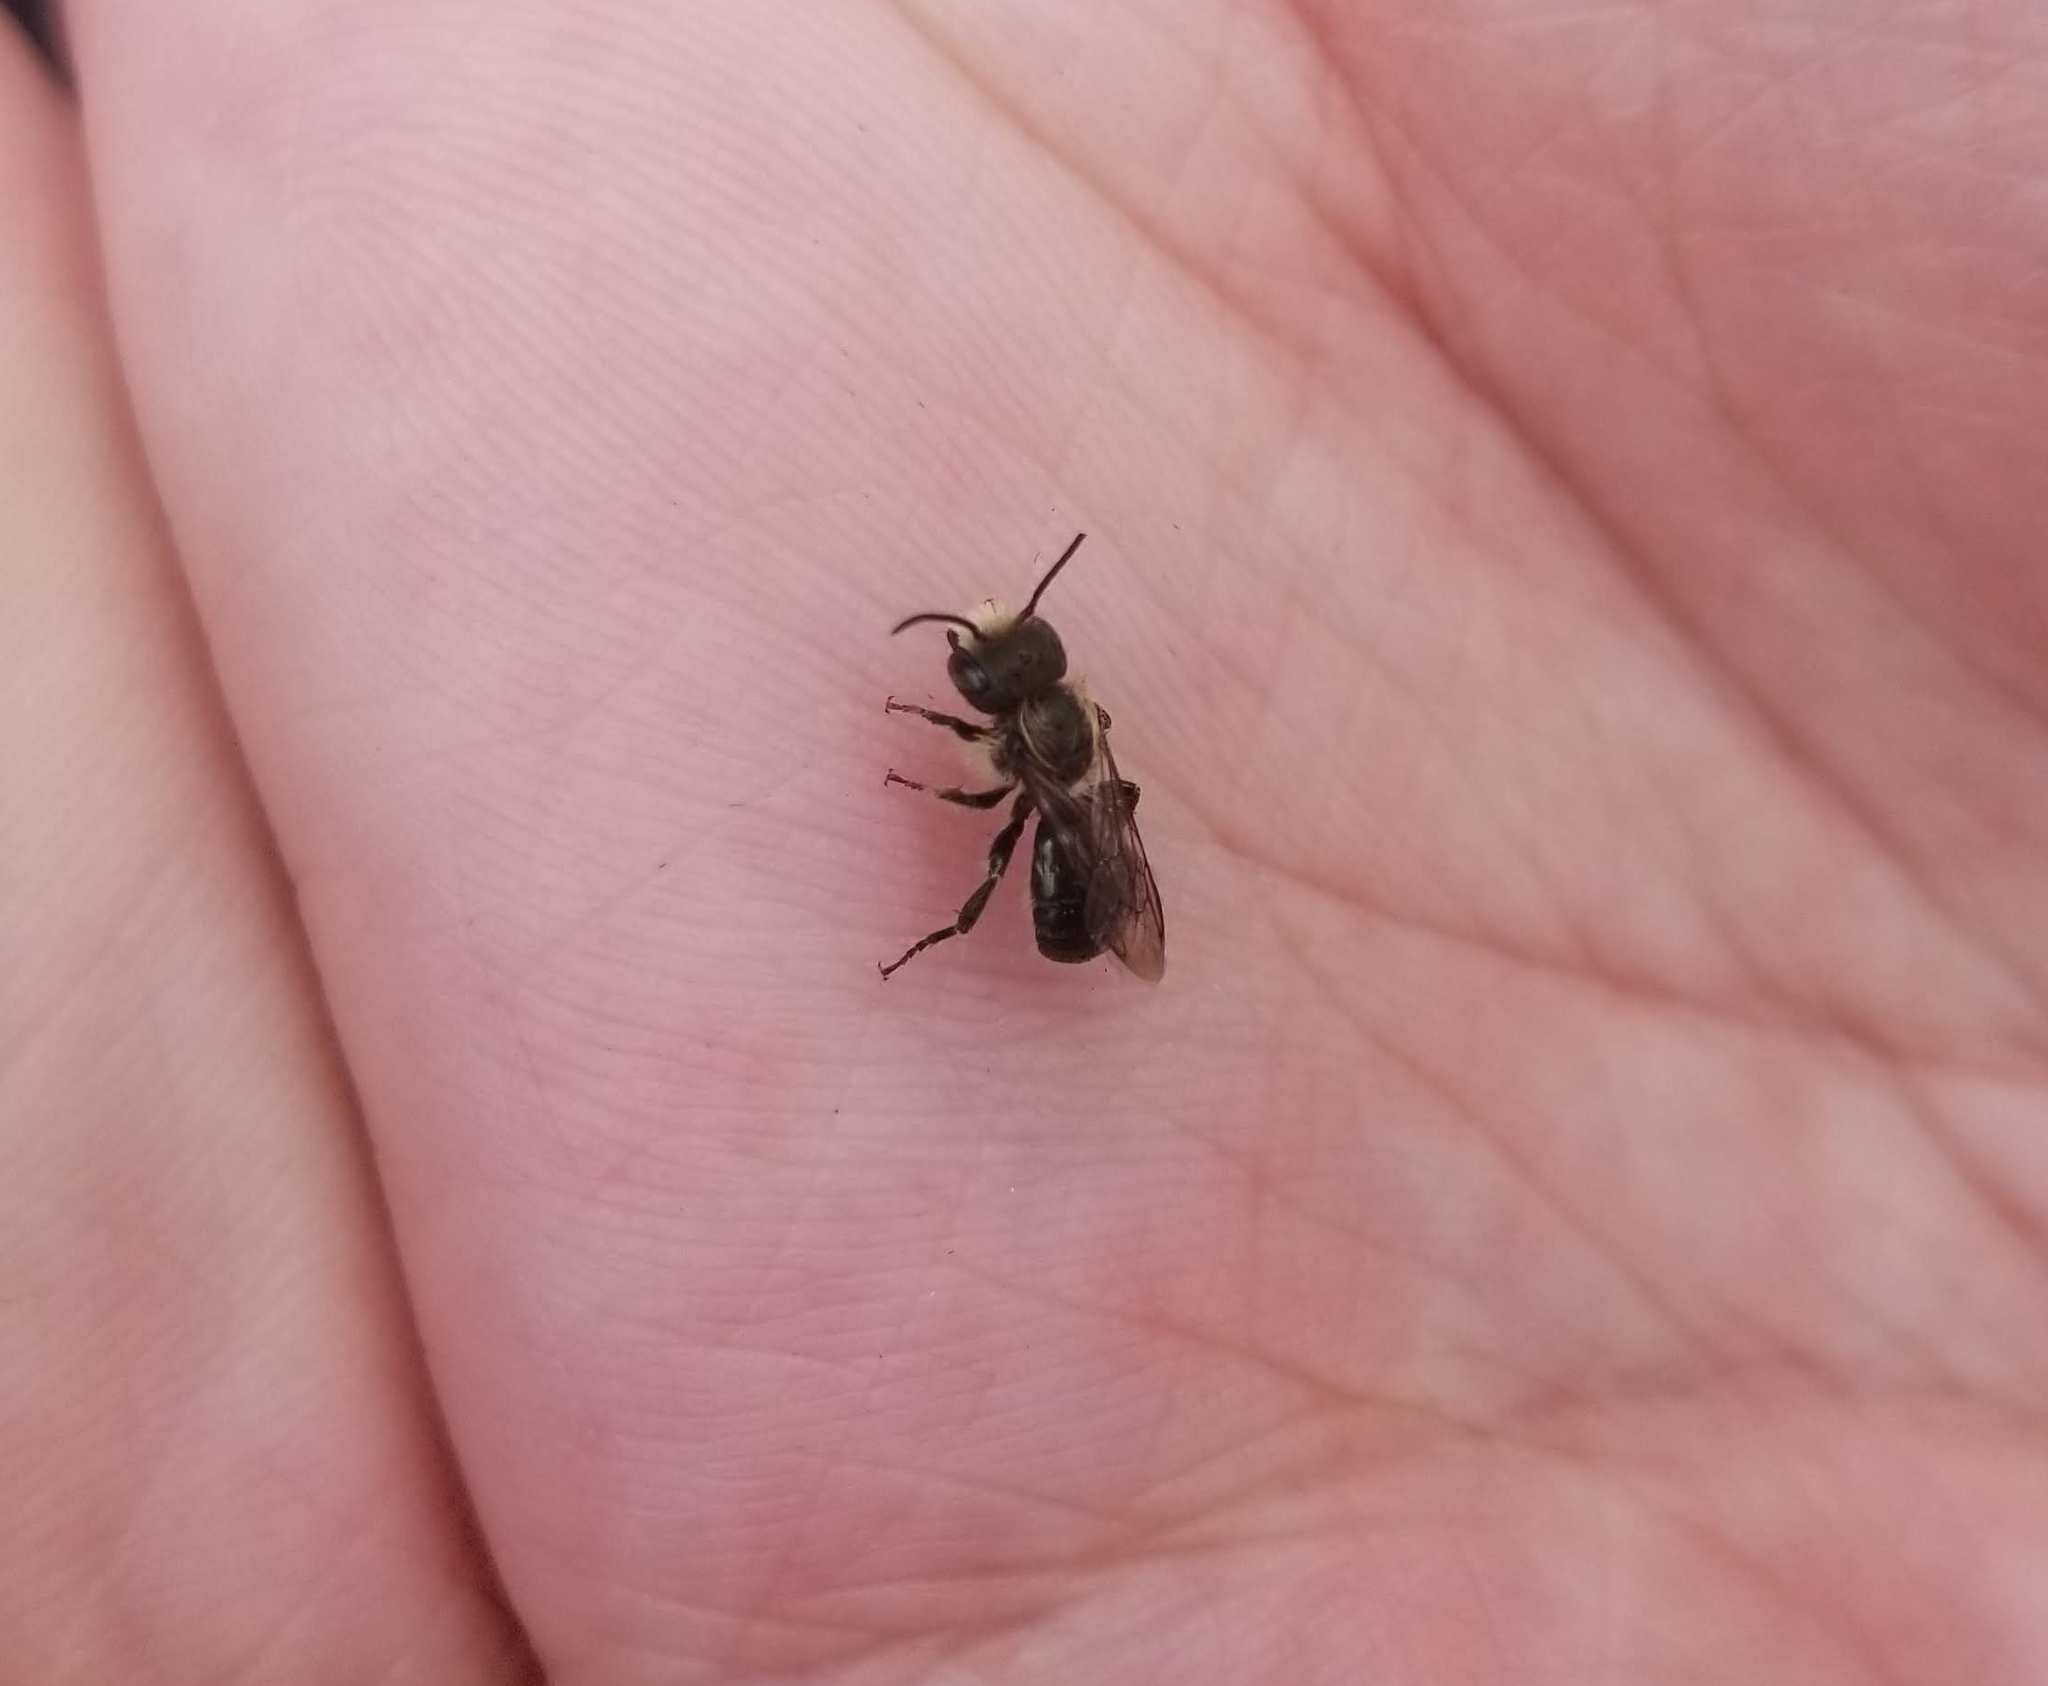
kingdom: Animalia
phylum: Arthropoda
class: Insecta
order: Hymenoptera
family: Megachilidae
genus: Osmia
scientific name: Osmia
